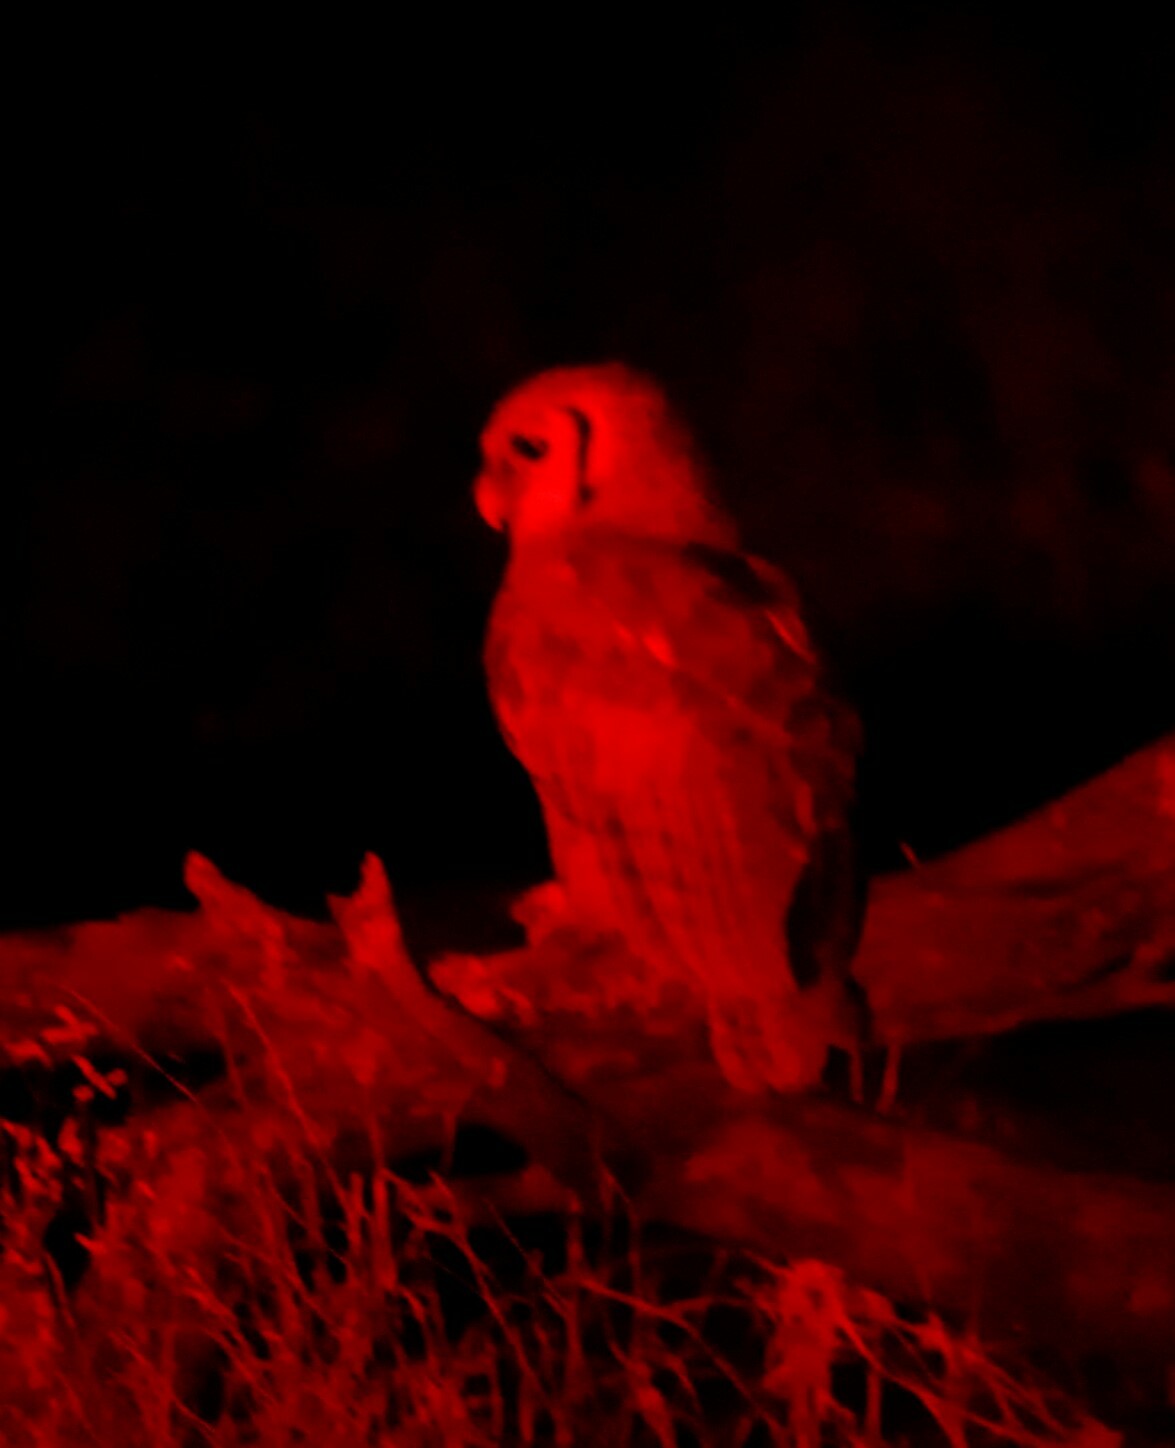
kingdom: Animalia
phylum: Chordata
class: Aves
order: Strigiformes
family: Strigidae
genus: Bubo
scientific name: Bubo lacteus
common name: Verreaux's eagle-owl
